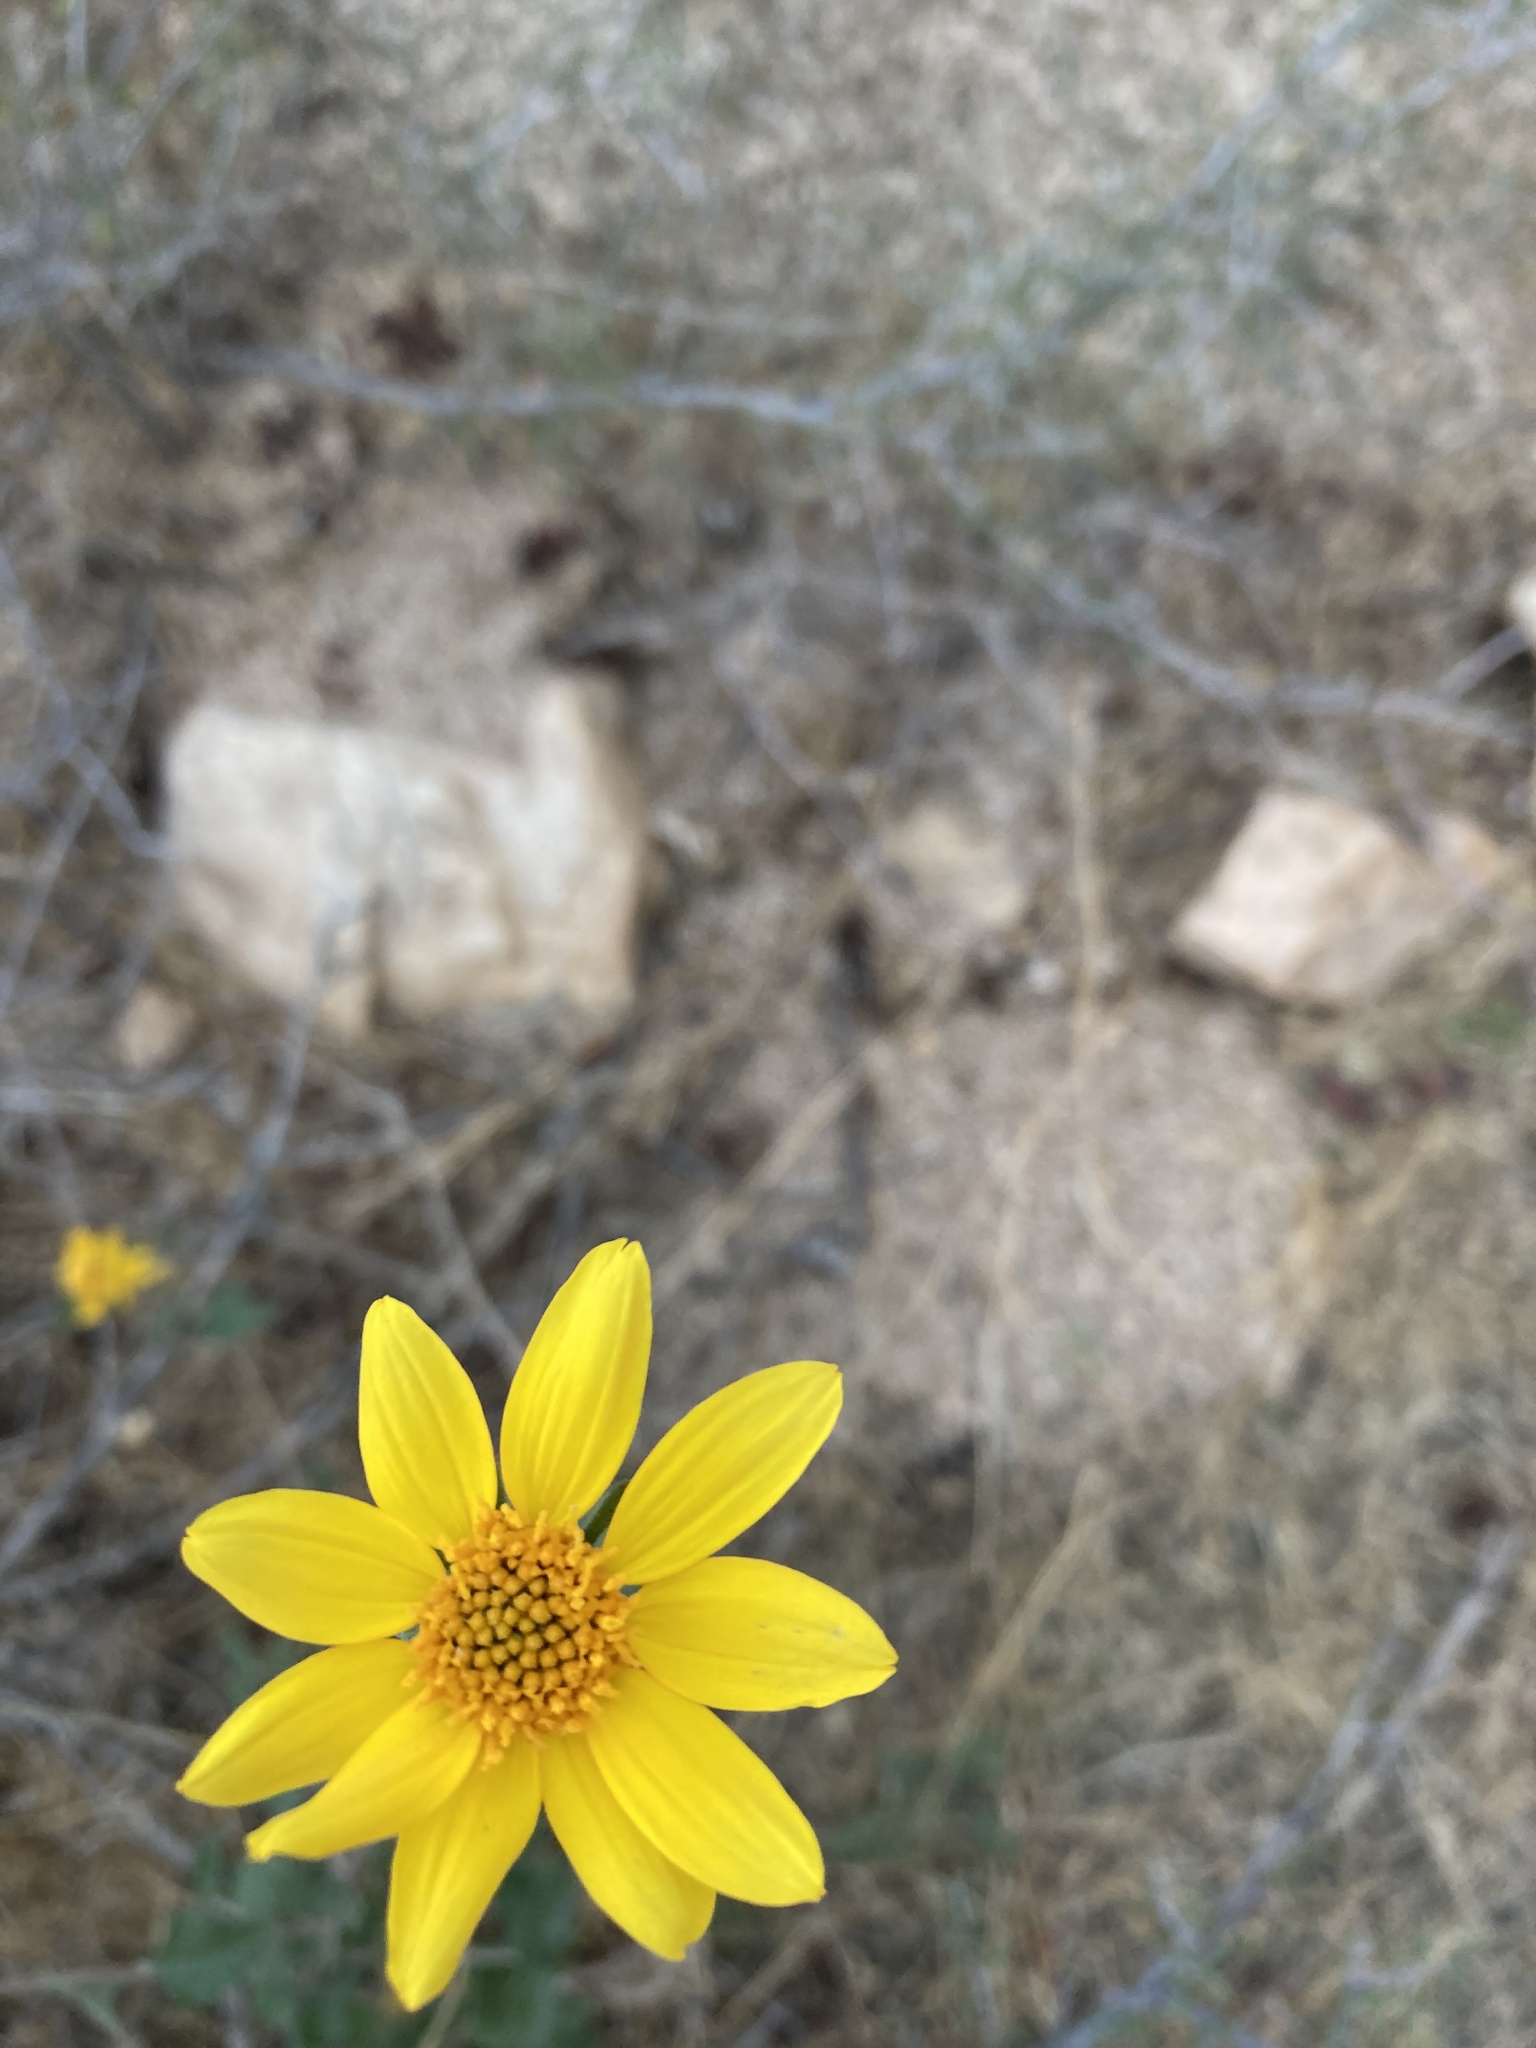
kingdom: Plantae
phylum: Tracheophyta
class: Magnoliopsida
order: Asterales
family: Asteraceae
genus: Bahiopsis
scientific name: Bahiopsis parishii
